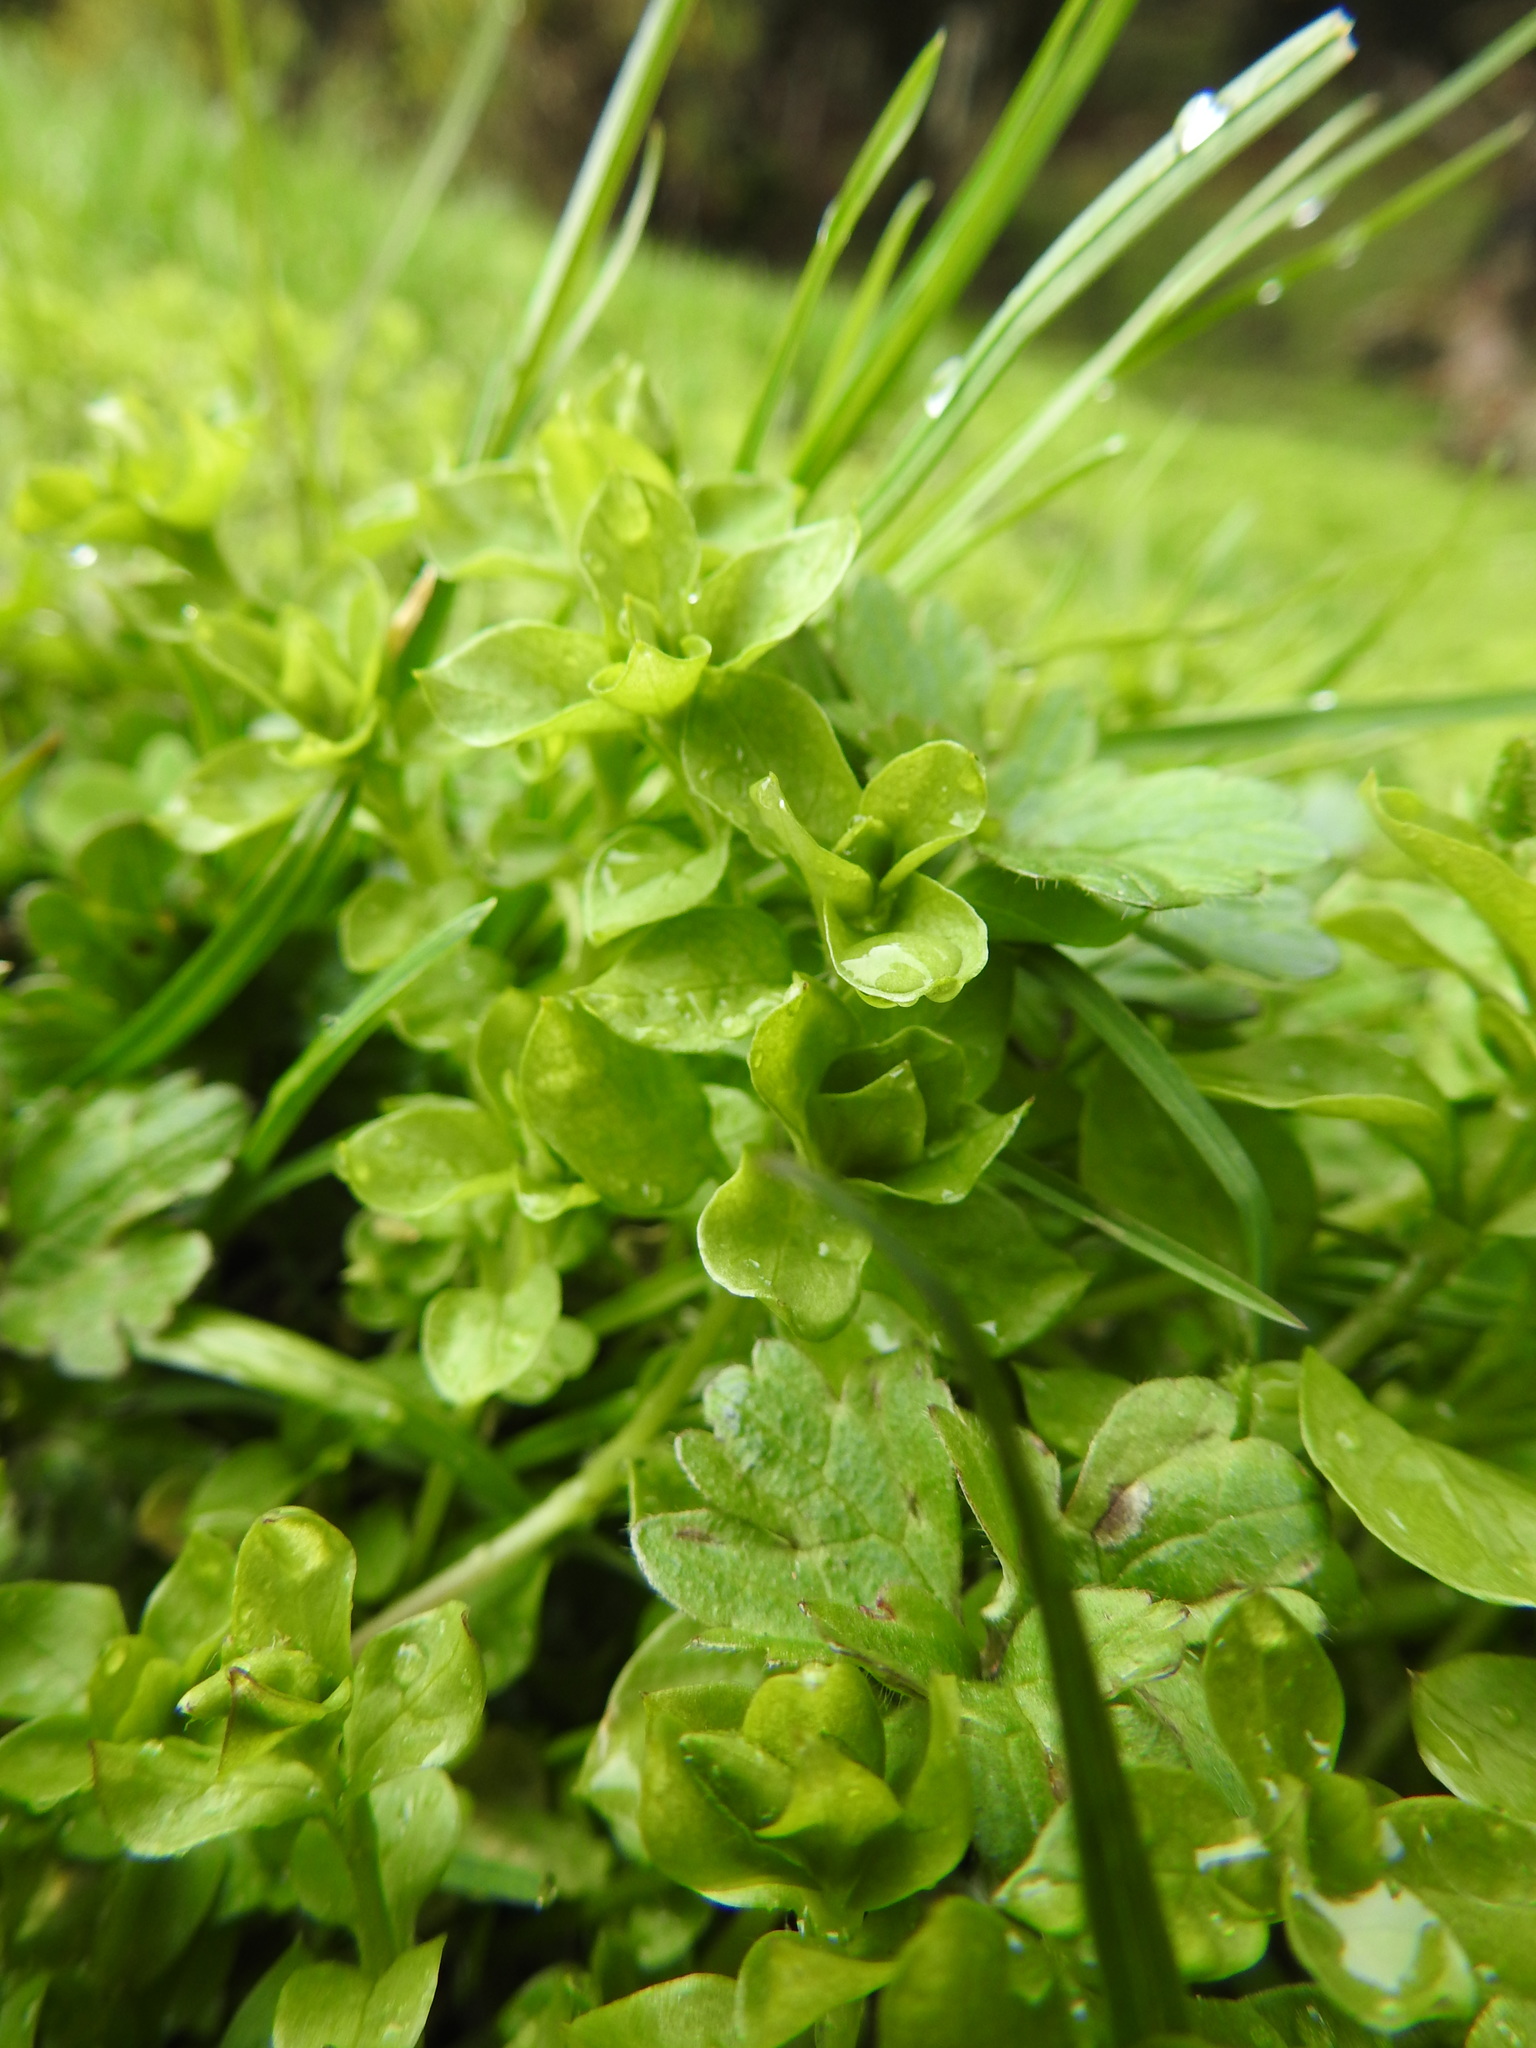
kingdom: Plantae
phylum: Tracheophyta
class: Magnoliopsida
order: Caryophyllales
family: Caryophyllaceae
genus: Stellaria
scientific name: Stellaria media
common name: Common chickweed
